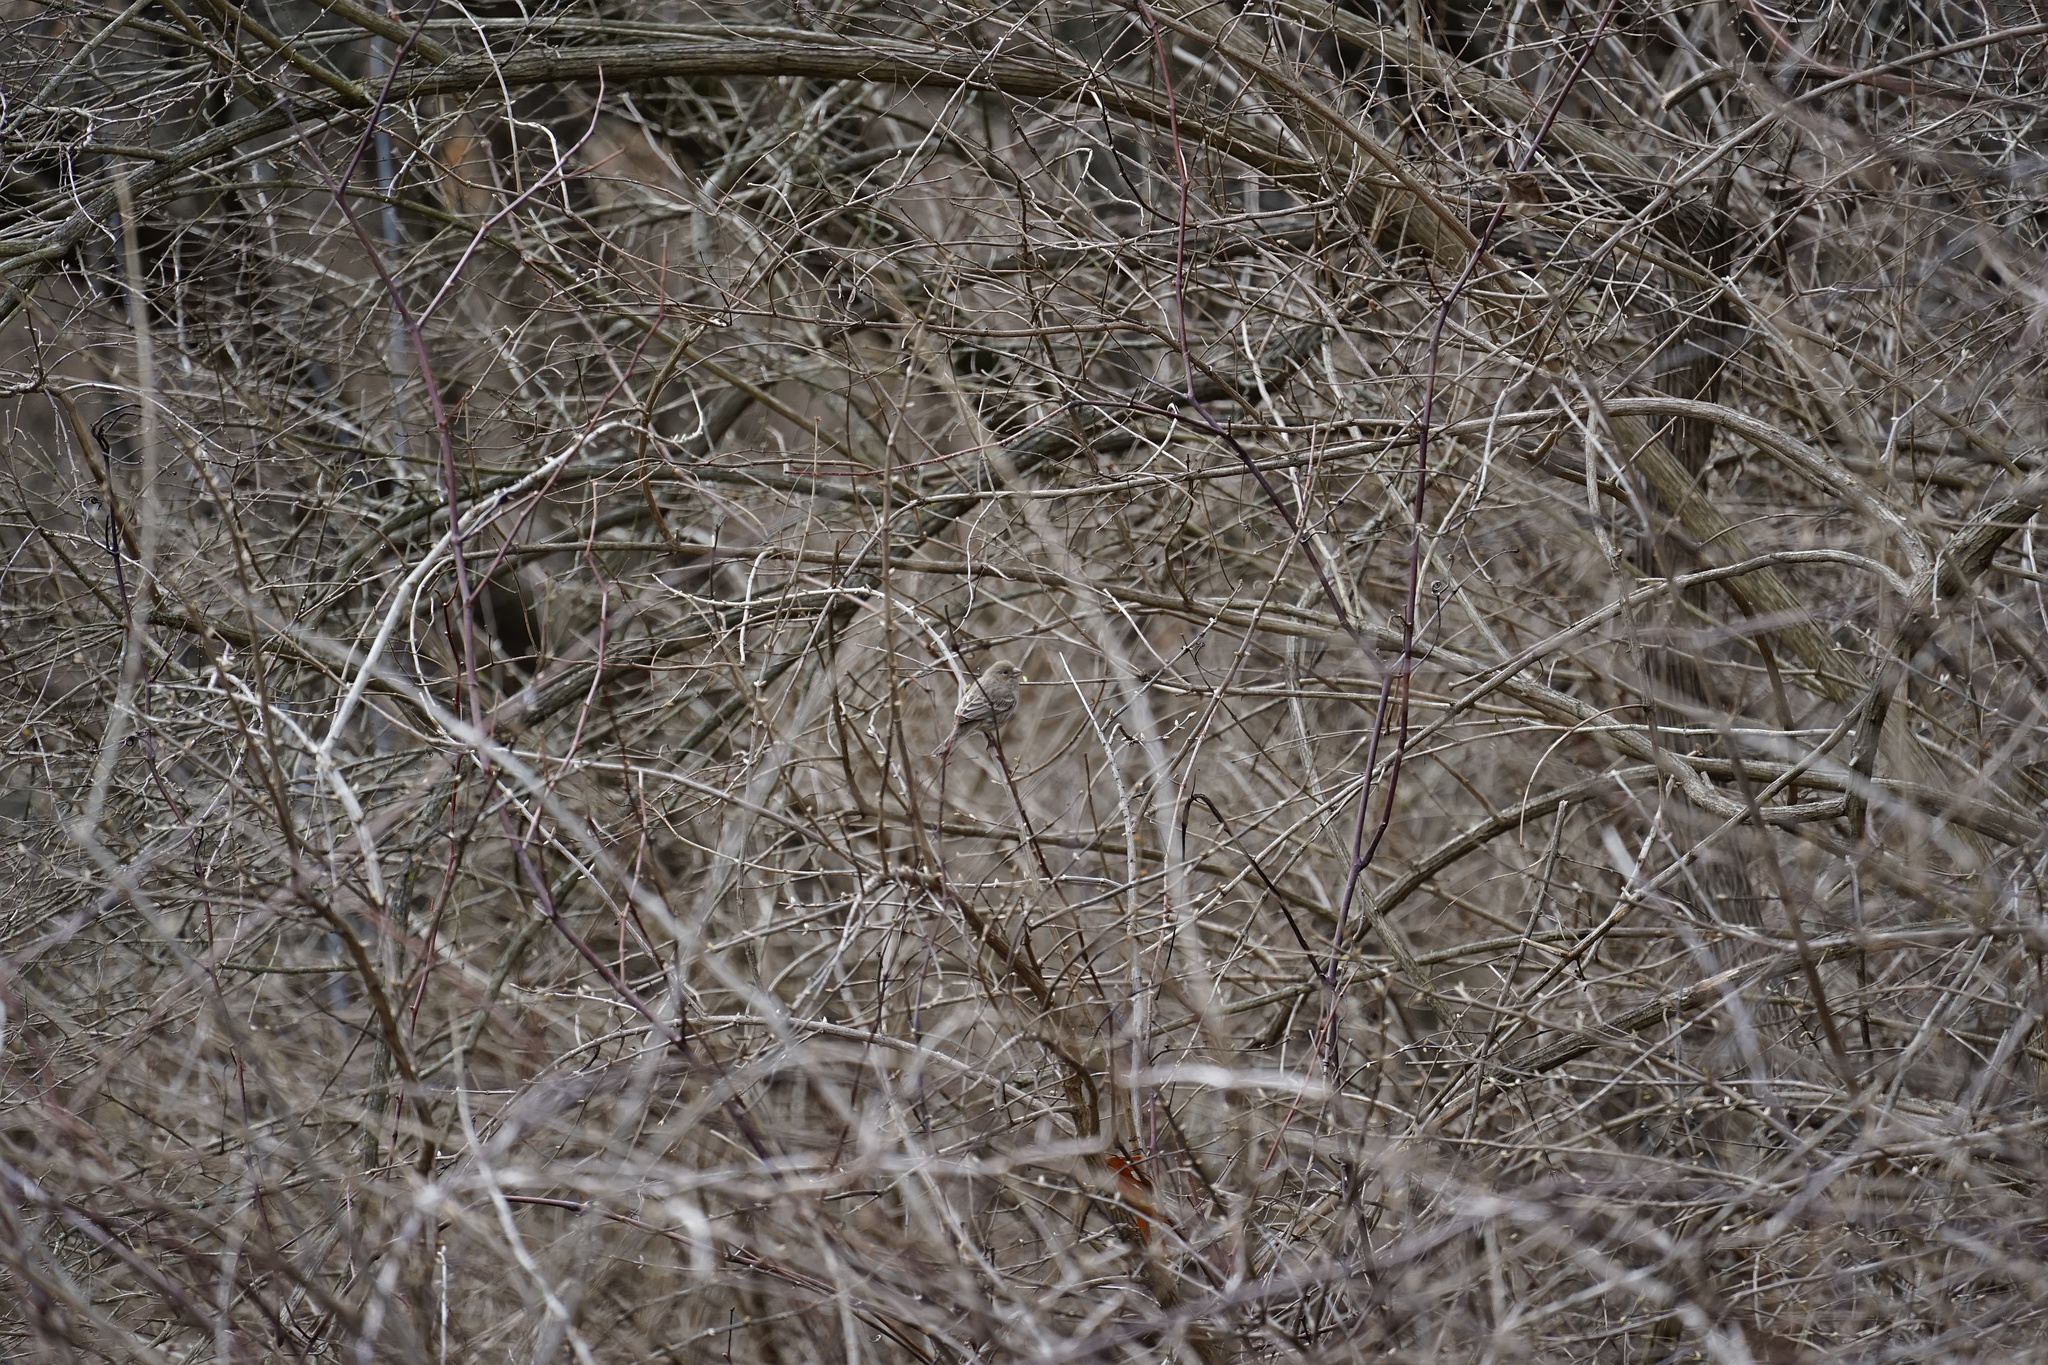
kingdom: Animalia
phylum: Chordata
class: Aves
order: Passeriformes
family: Fringillidae
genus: Haemorhous
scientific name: Haemorhous mexicanus
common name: House finch
